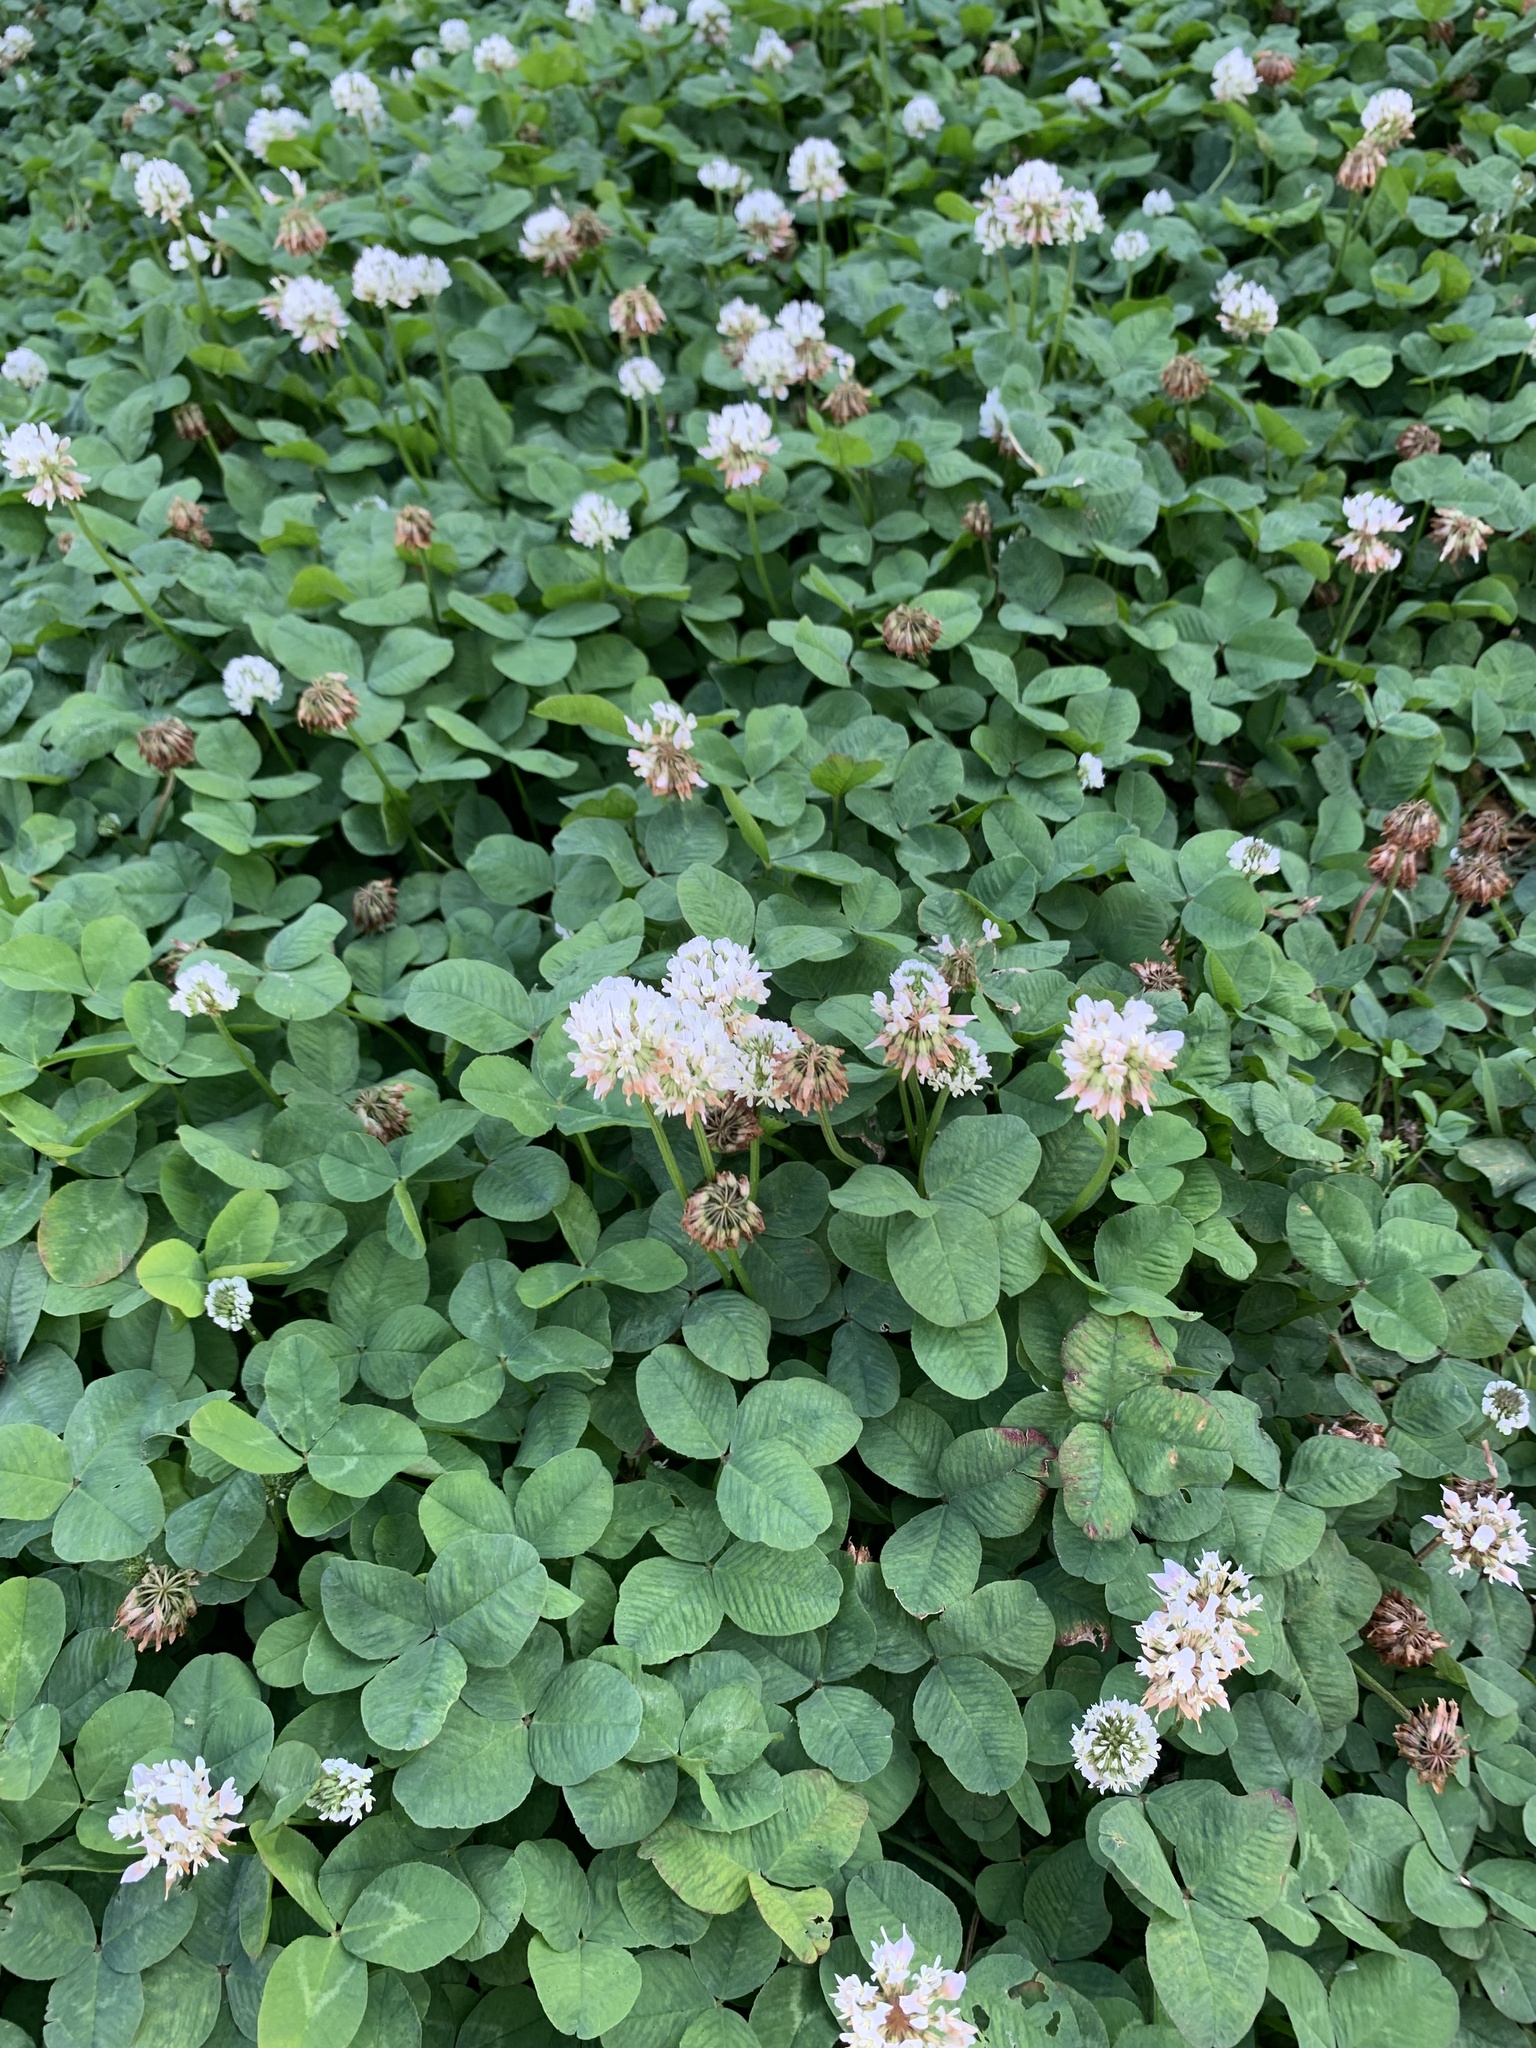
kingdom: Plantae
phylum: Tracheophyta
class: Magnoliopsida
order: Fabales
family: Fabaceae
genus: Trifolium
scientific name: Trifolium repens
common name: White clover
